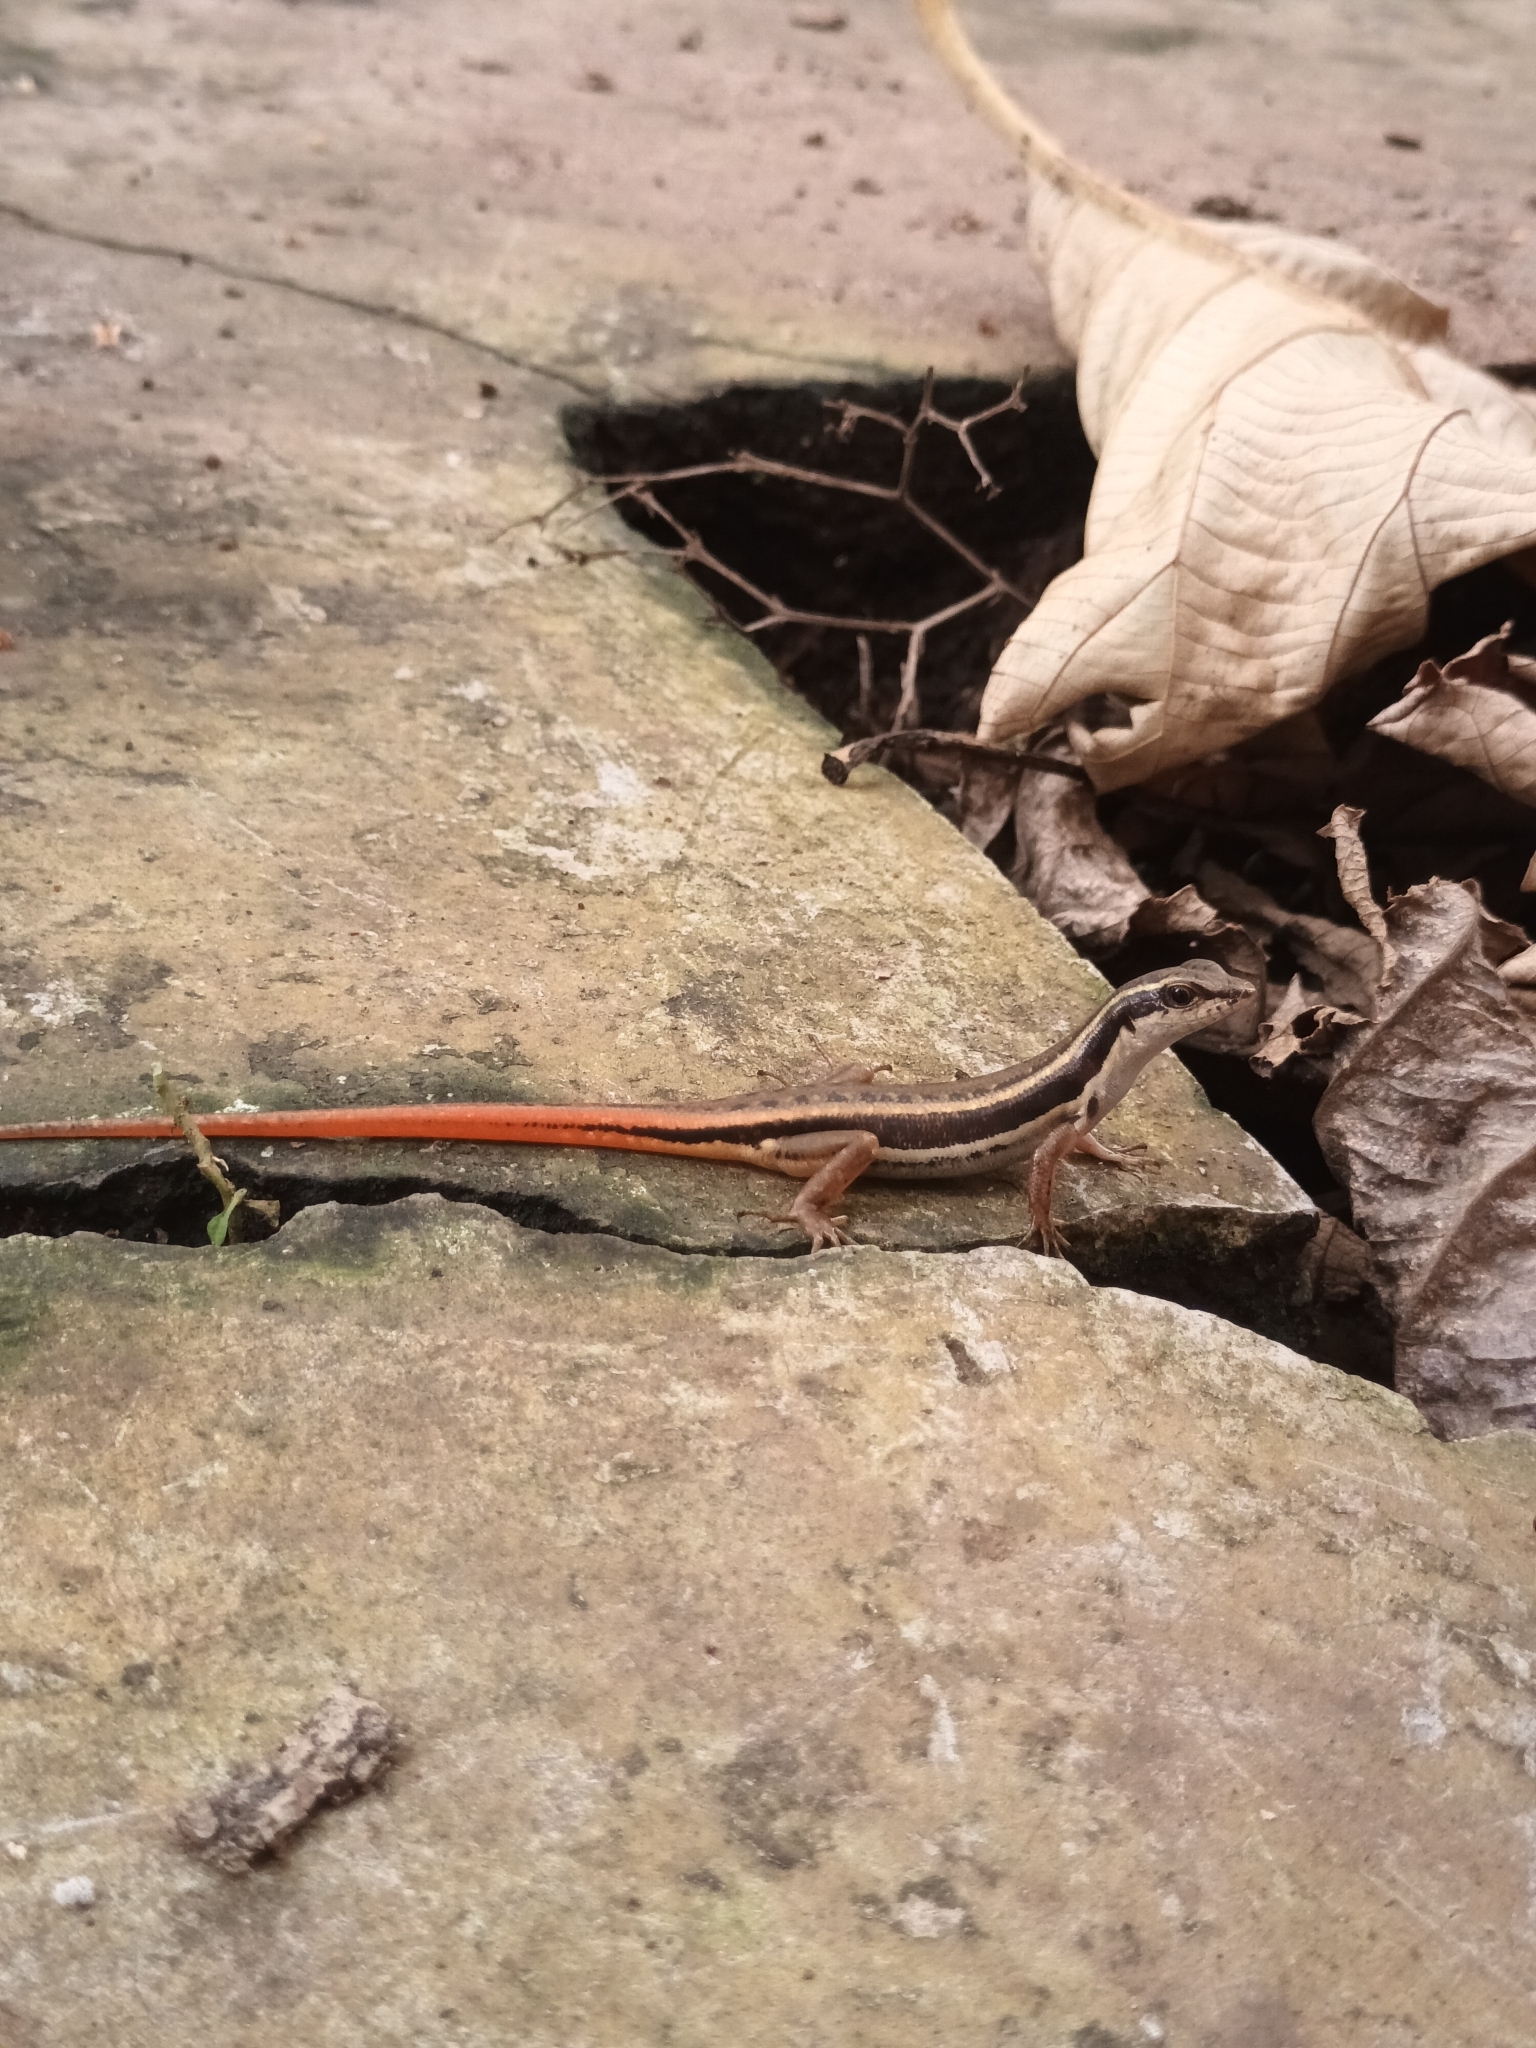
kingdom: Animalia
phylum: Chordata
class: Squamata
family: Scincidae
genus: Sphenomorphus
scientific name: Sphenomorphus dussumieri
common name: Dussumier's forest skink
